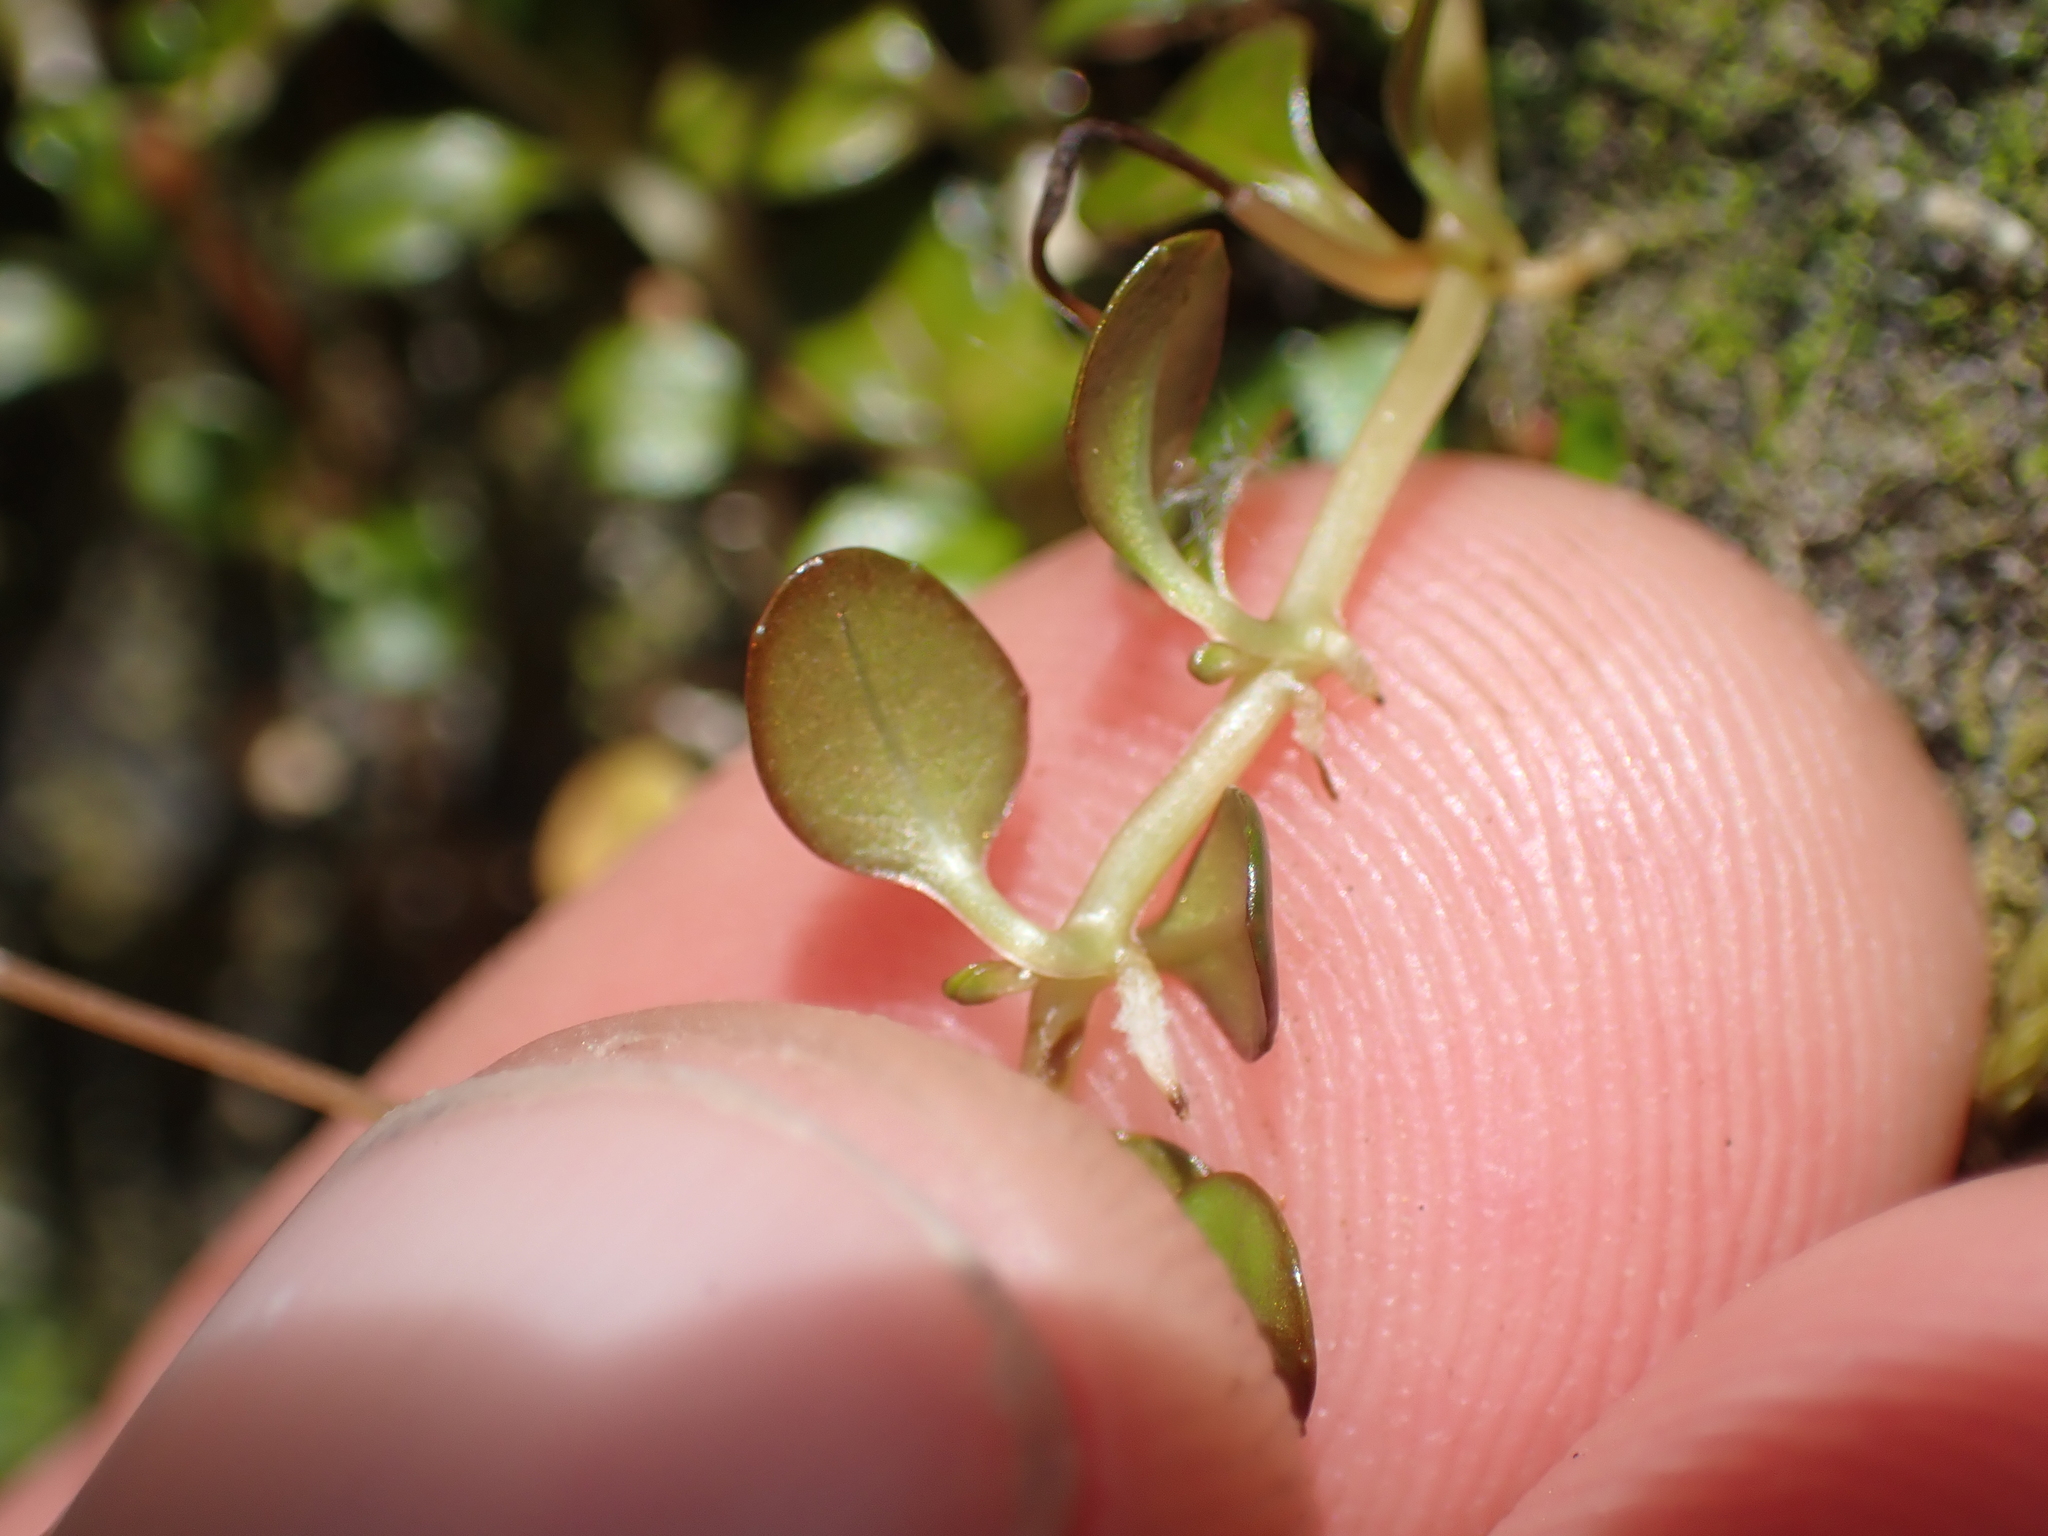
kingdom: Plantae
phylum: Tracheophyta
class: Magnoliopsida
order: Myrtales
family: Onagraceae
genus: Epilobium
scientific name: Epilobium brunnescens
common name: New zealand willowherb
